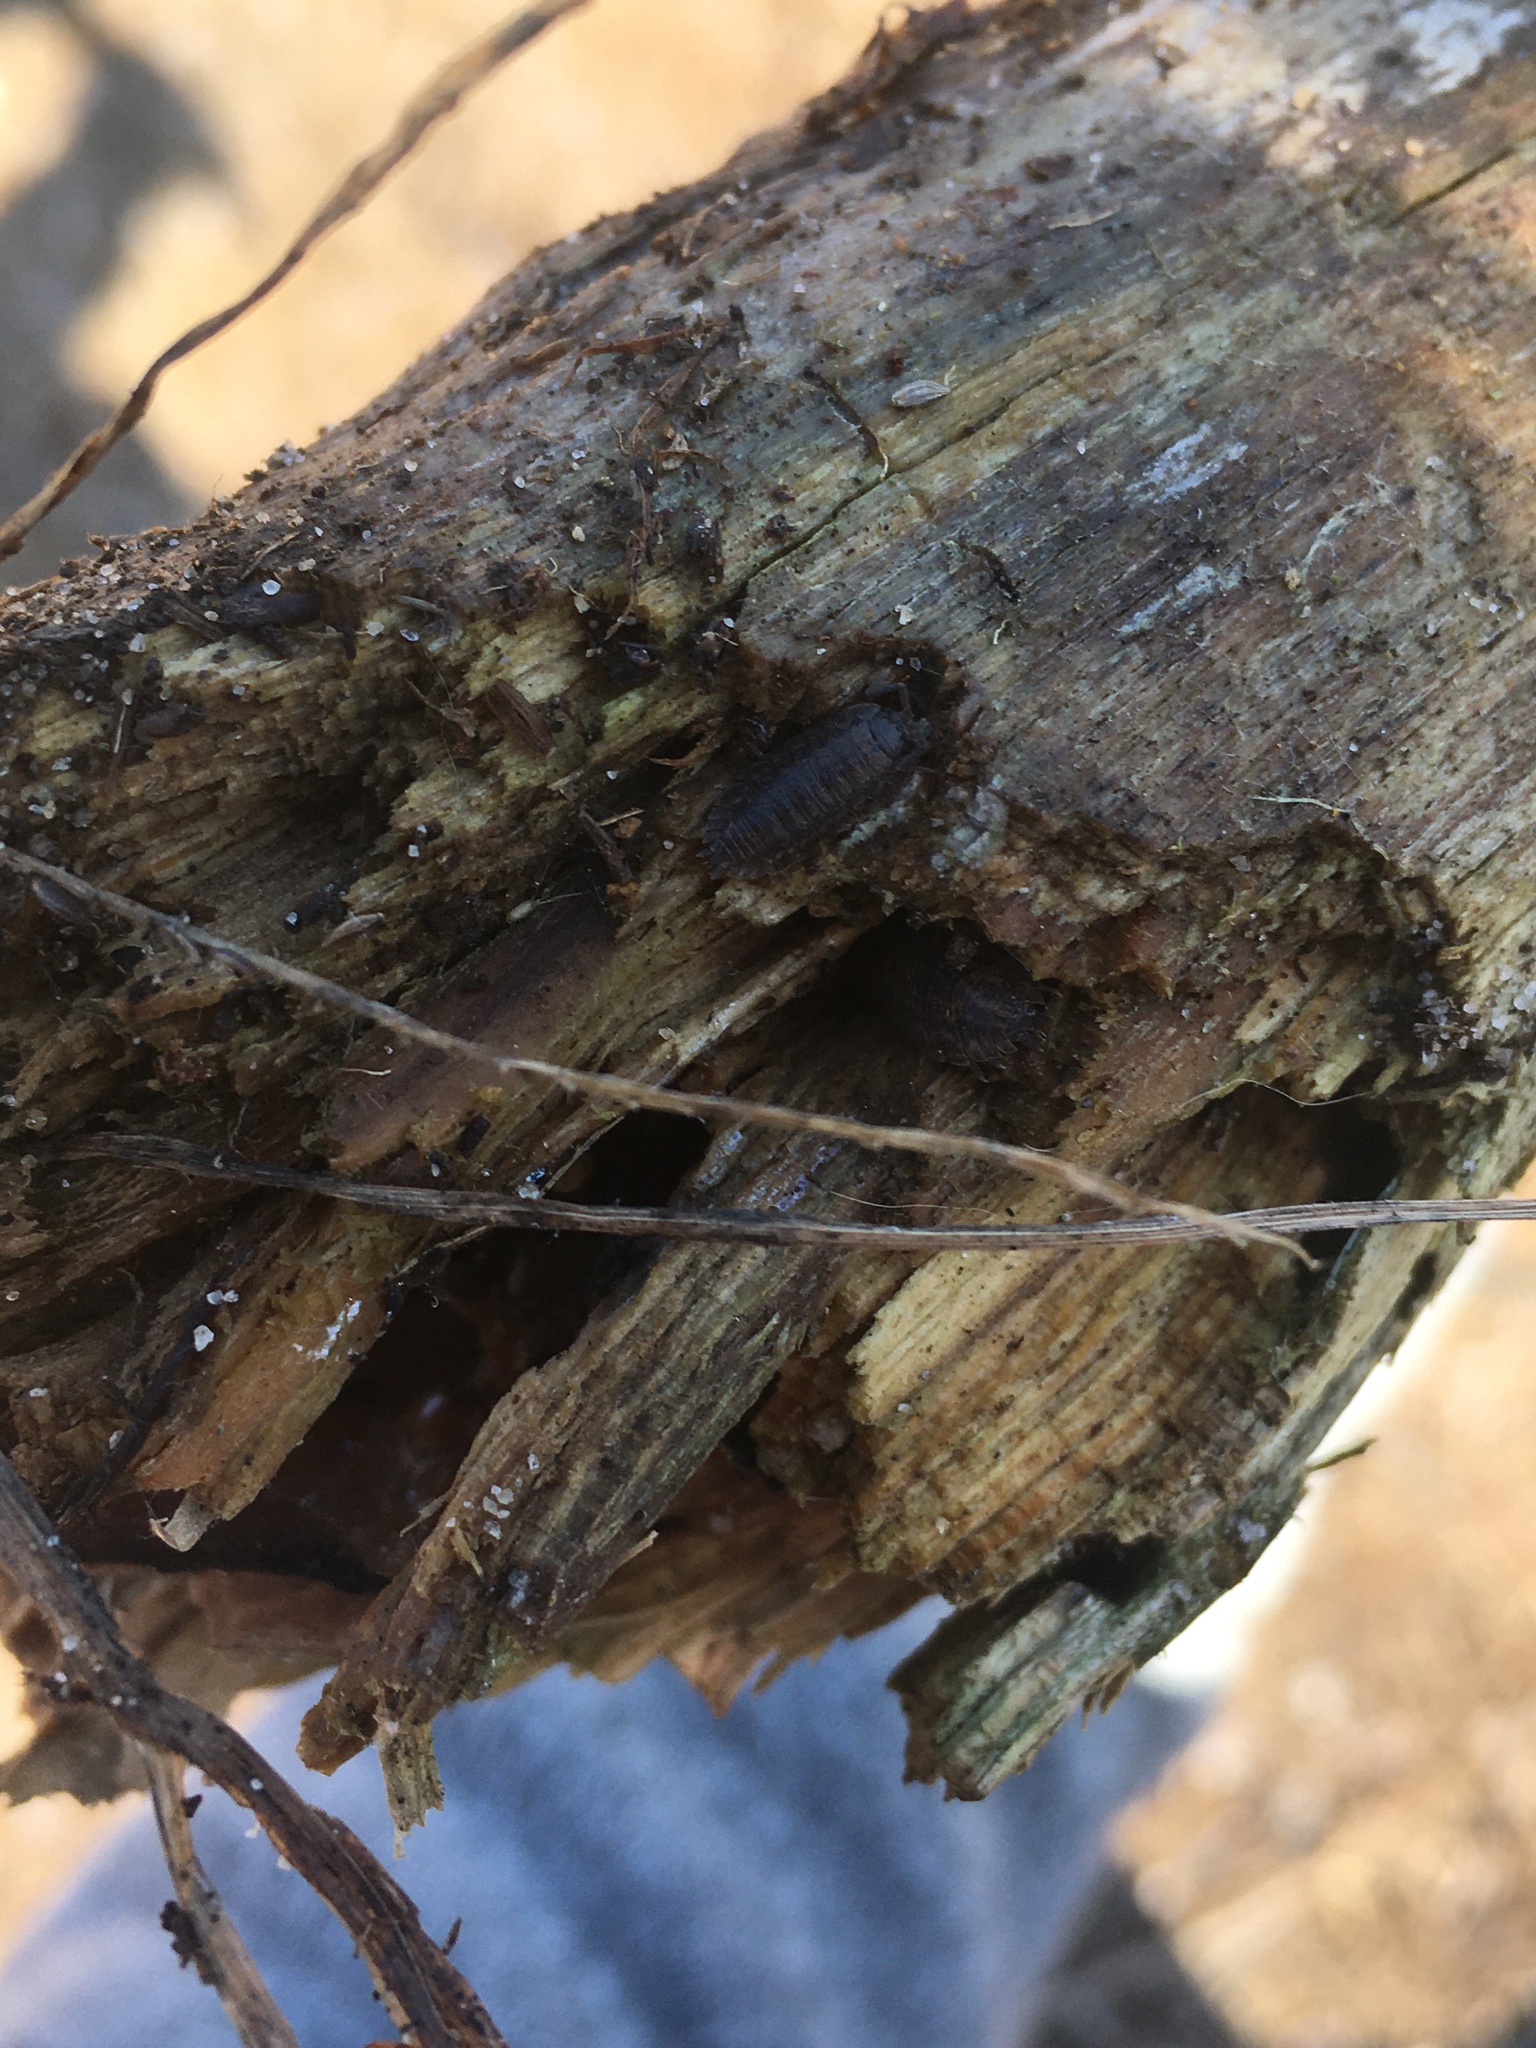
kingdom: Animalia
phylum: Arthropoda
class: Malacostraca
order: Isopoda
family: Trachelipodidae
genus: Trachelipus
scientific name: Trachelipus rathkii
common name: Isopod
